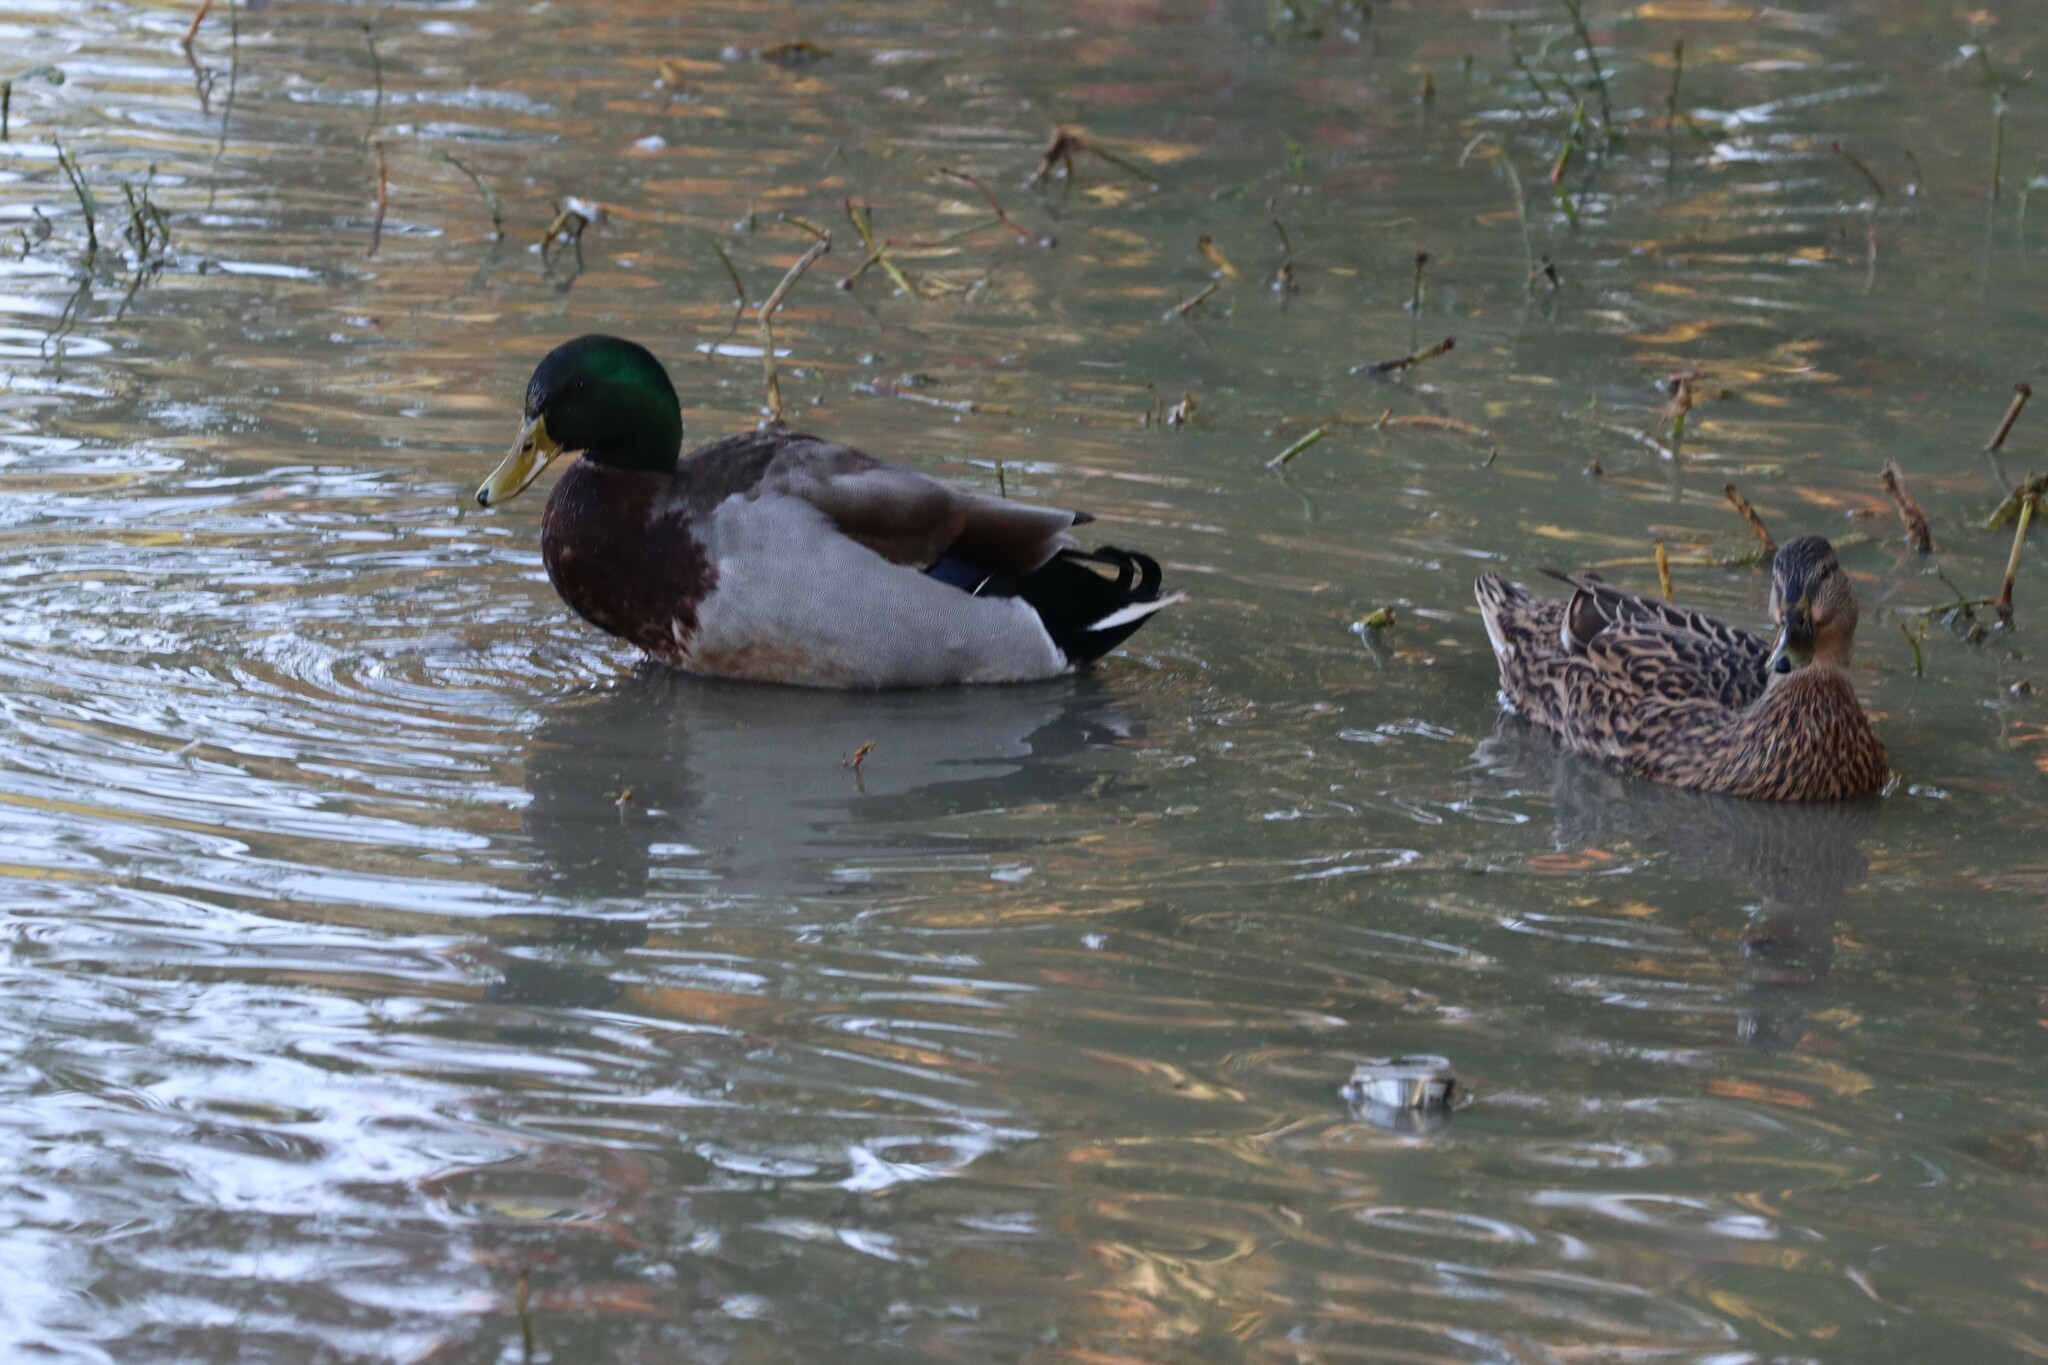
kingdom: Animalia
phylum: Chordata
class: Aves
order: Anseriformes
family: Anatidae
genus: Anas
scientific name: Anas platyrhynchos
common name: Mallard
